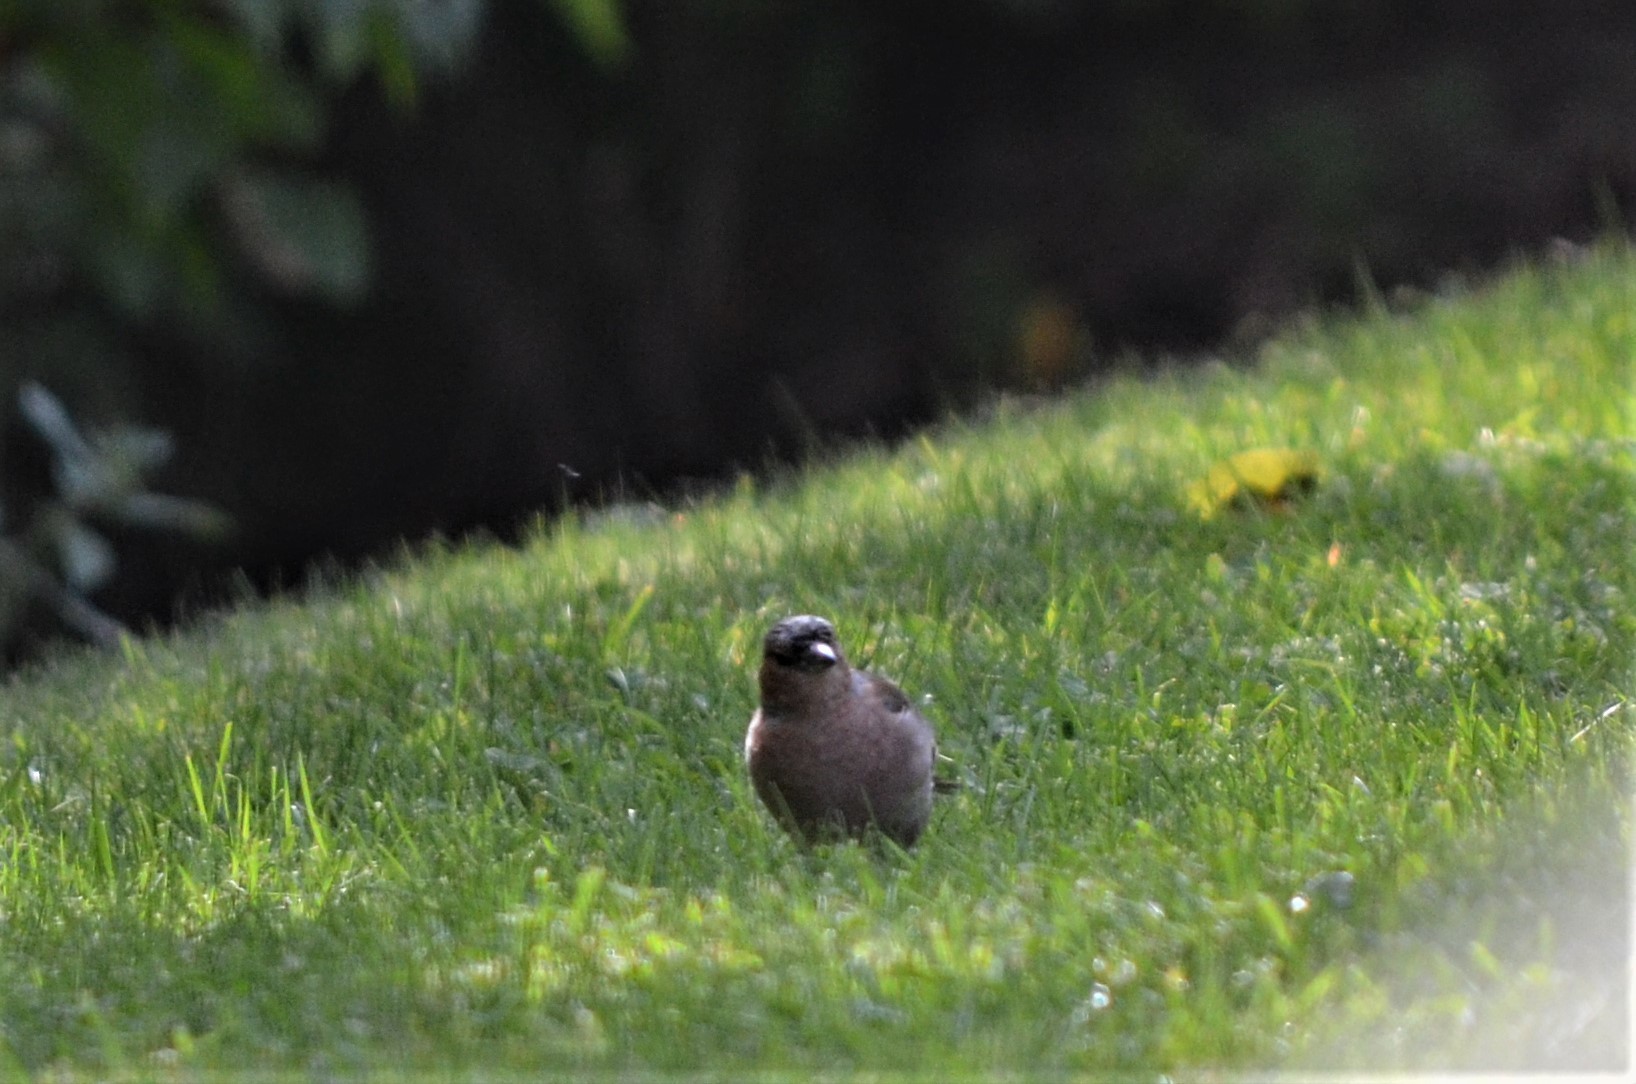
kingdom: Animalia
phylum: Chordata
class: Aves
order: Passeriformes
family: Fringillidae
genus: Fringilla
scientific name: Fringilla coelebs
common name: Common chaffinch
